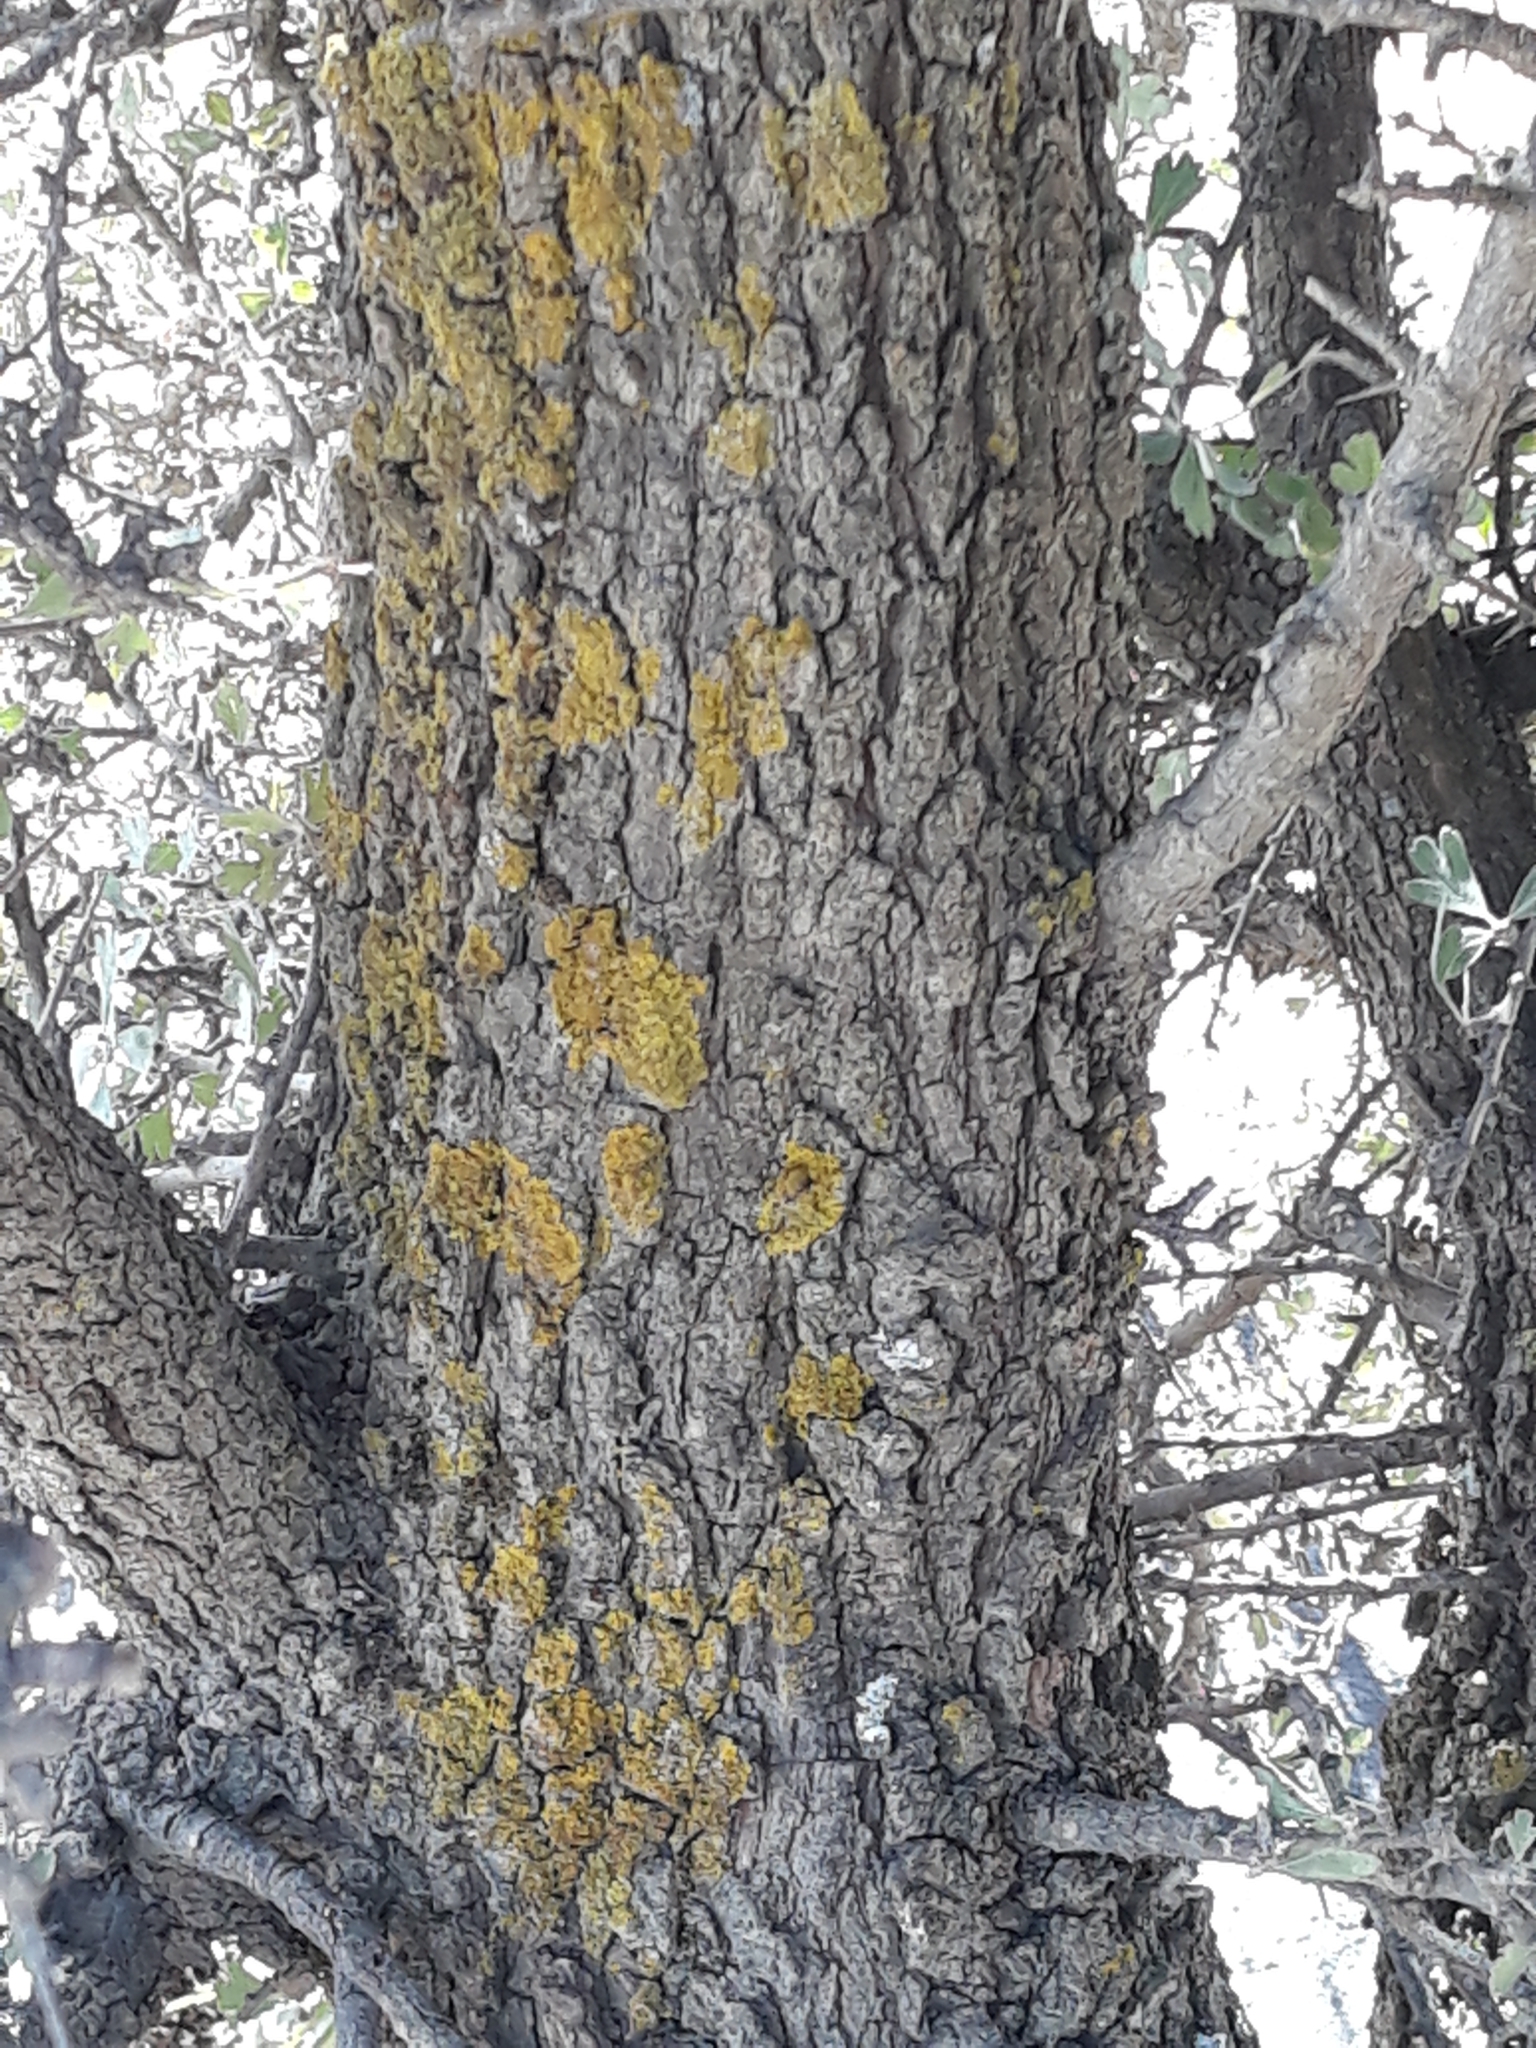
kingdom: Plantae
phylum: Tracheophyta
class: Magnoliopsida
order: Rosales
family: Rosaceae
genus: Crataegus
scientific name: Crataegus azarolus
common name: Azarole
